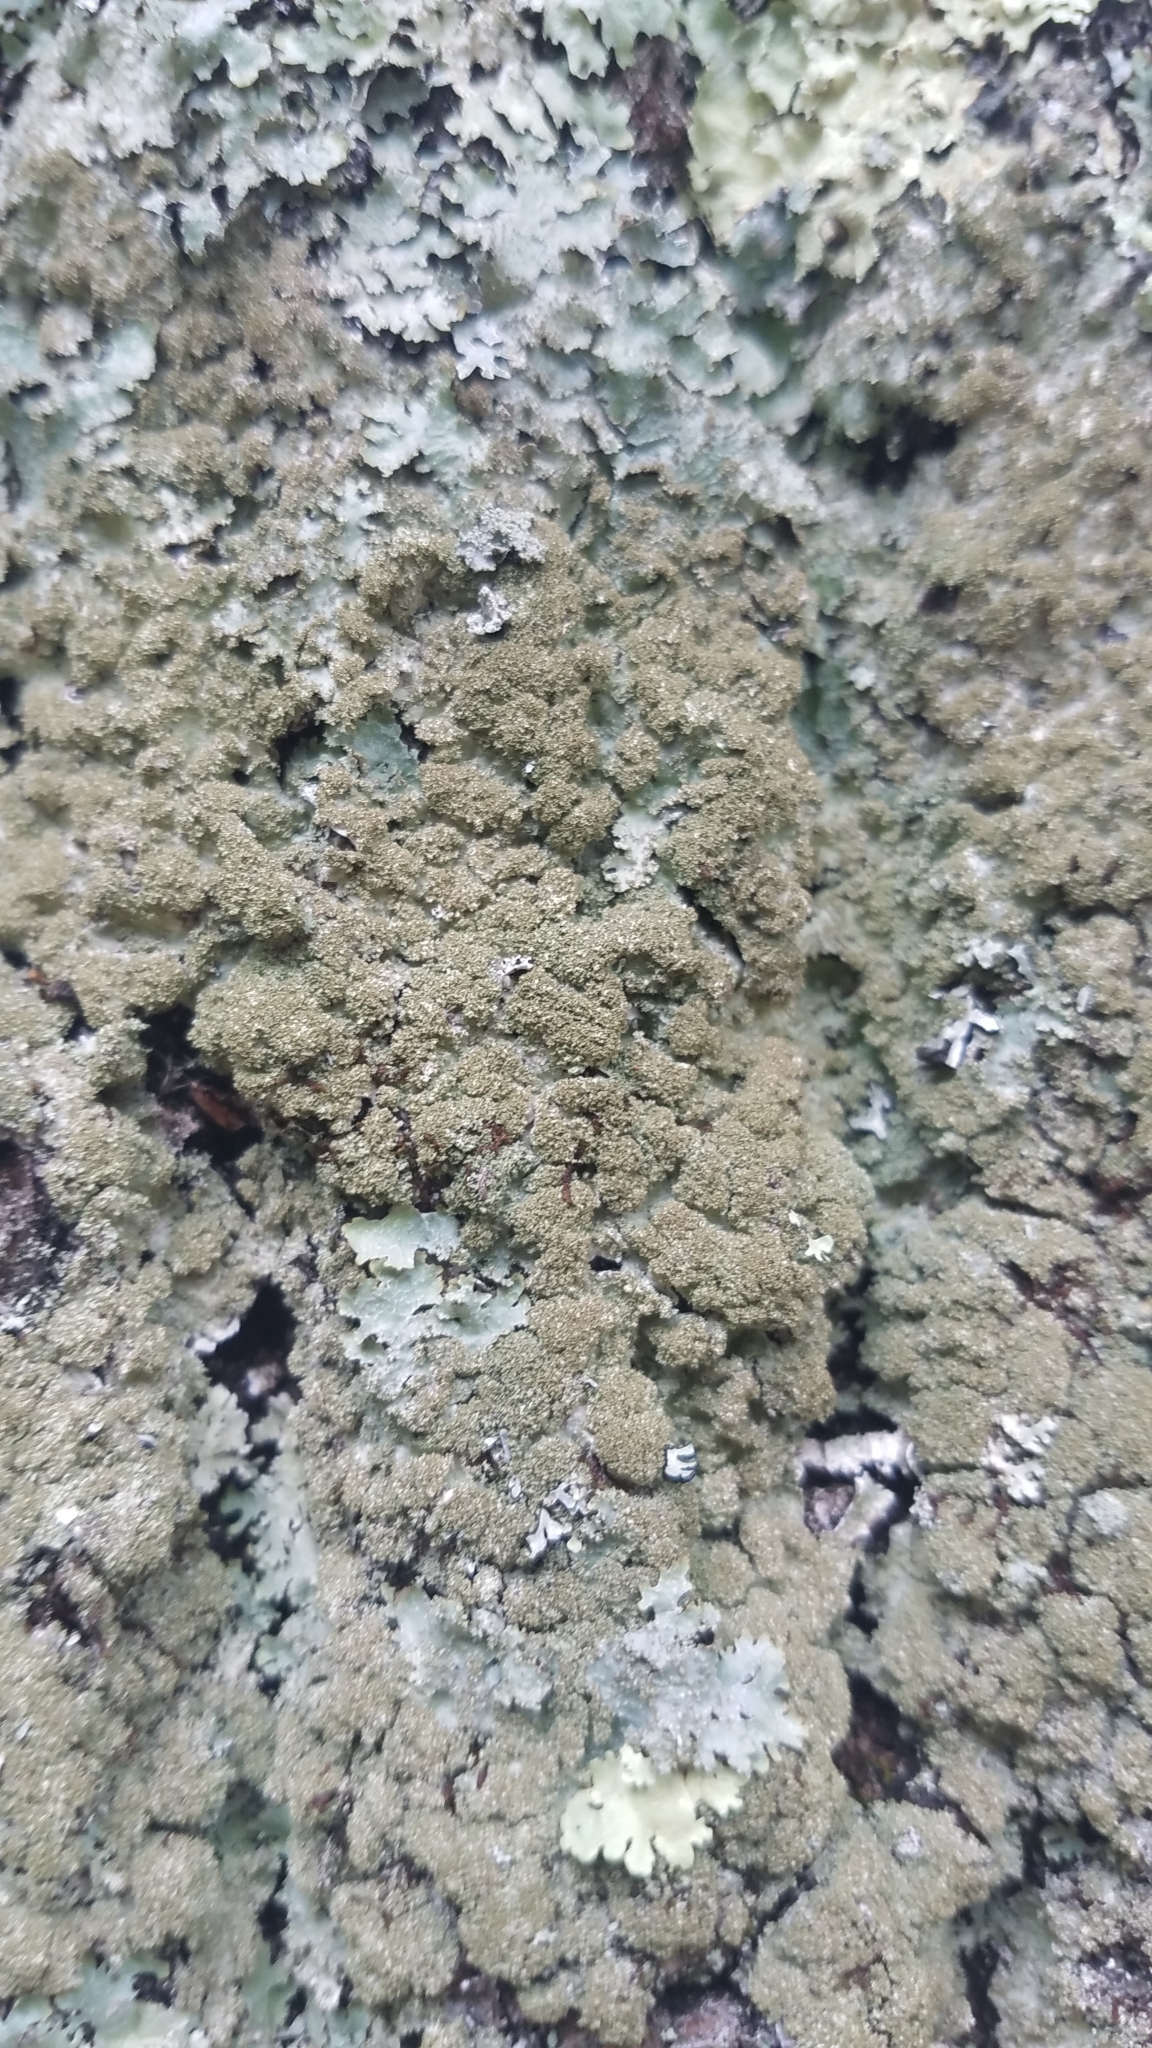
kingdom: Fungi
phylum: Ascomycota
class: Lecanoromycetes
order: Lecanorales
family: Parmeliaceae
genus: Punctelia
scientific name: Punctelia rudecta
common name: Rough speckled shield lichen
